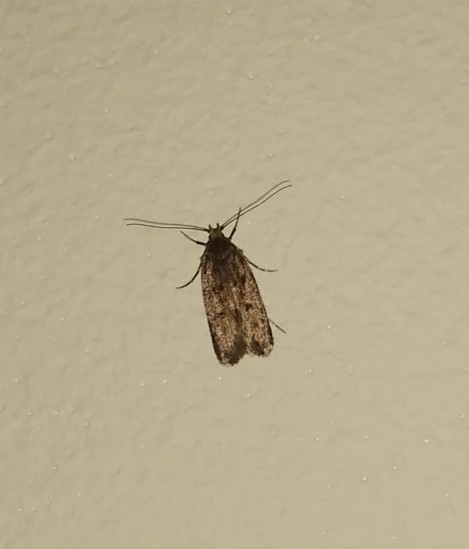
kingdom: Animalia
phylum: Arthropoda
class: Insecta
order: Lepidoptera
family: Oecophoridae
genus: Hofmannophila
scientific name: Hofmannophila pseudospretella
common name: Brown house moth
